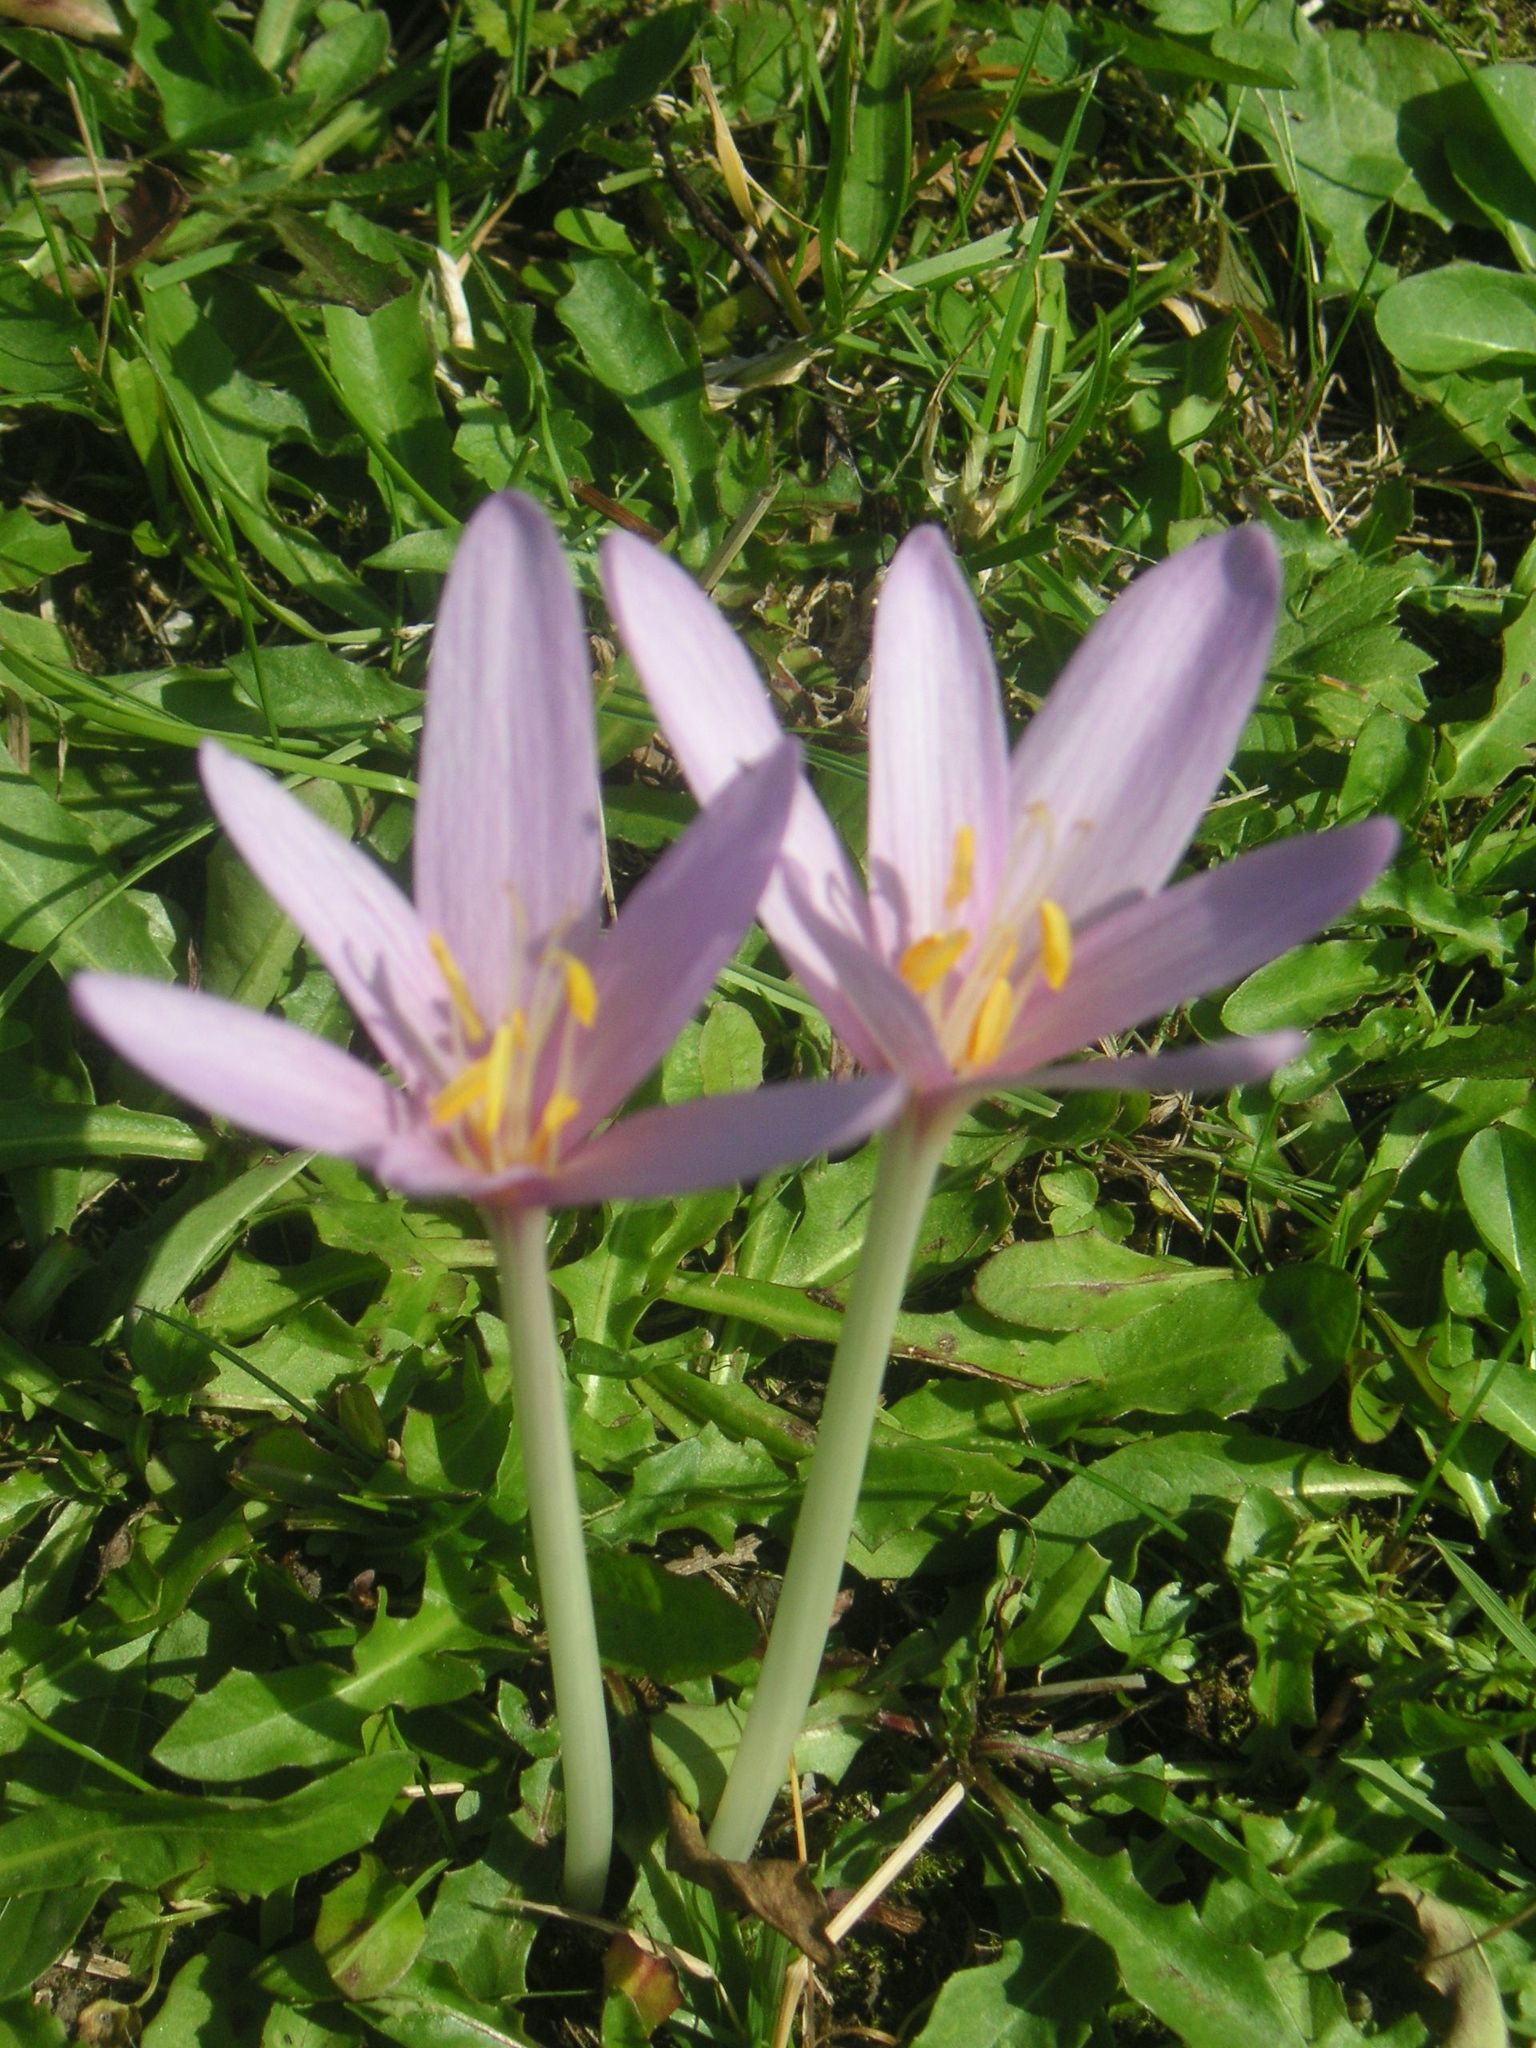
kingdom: Plantae
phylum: Tracheophyta
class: Liliopsida
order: Liliales
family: Colchicaceae
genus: Colchicum
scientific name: Colchicum autumnale
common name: Autumn crocus
